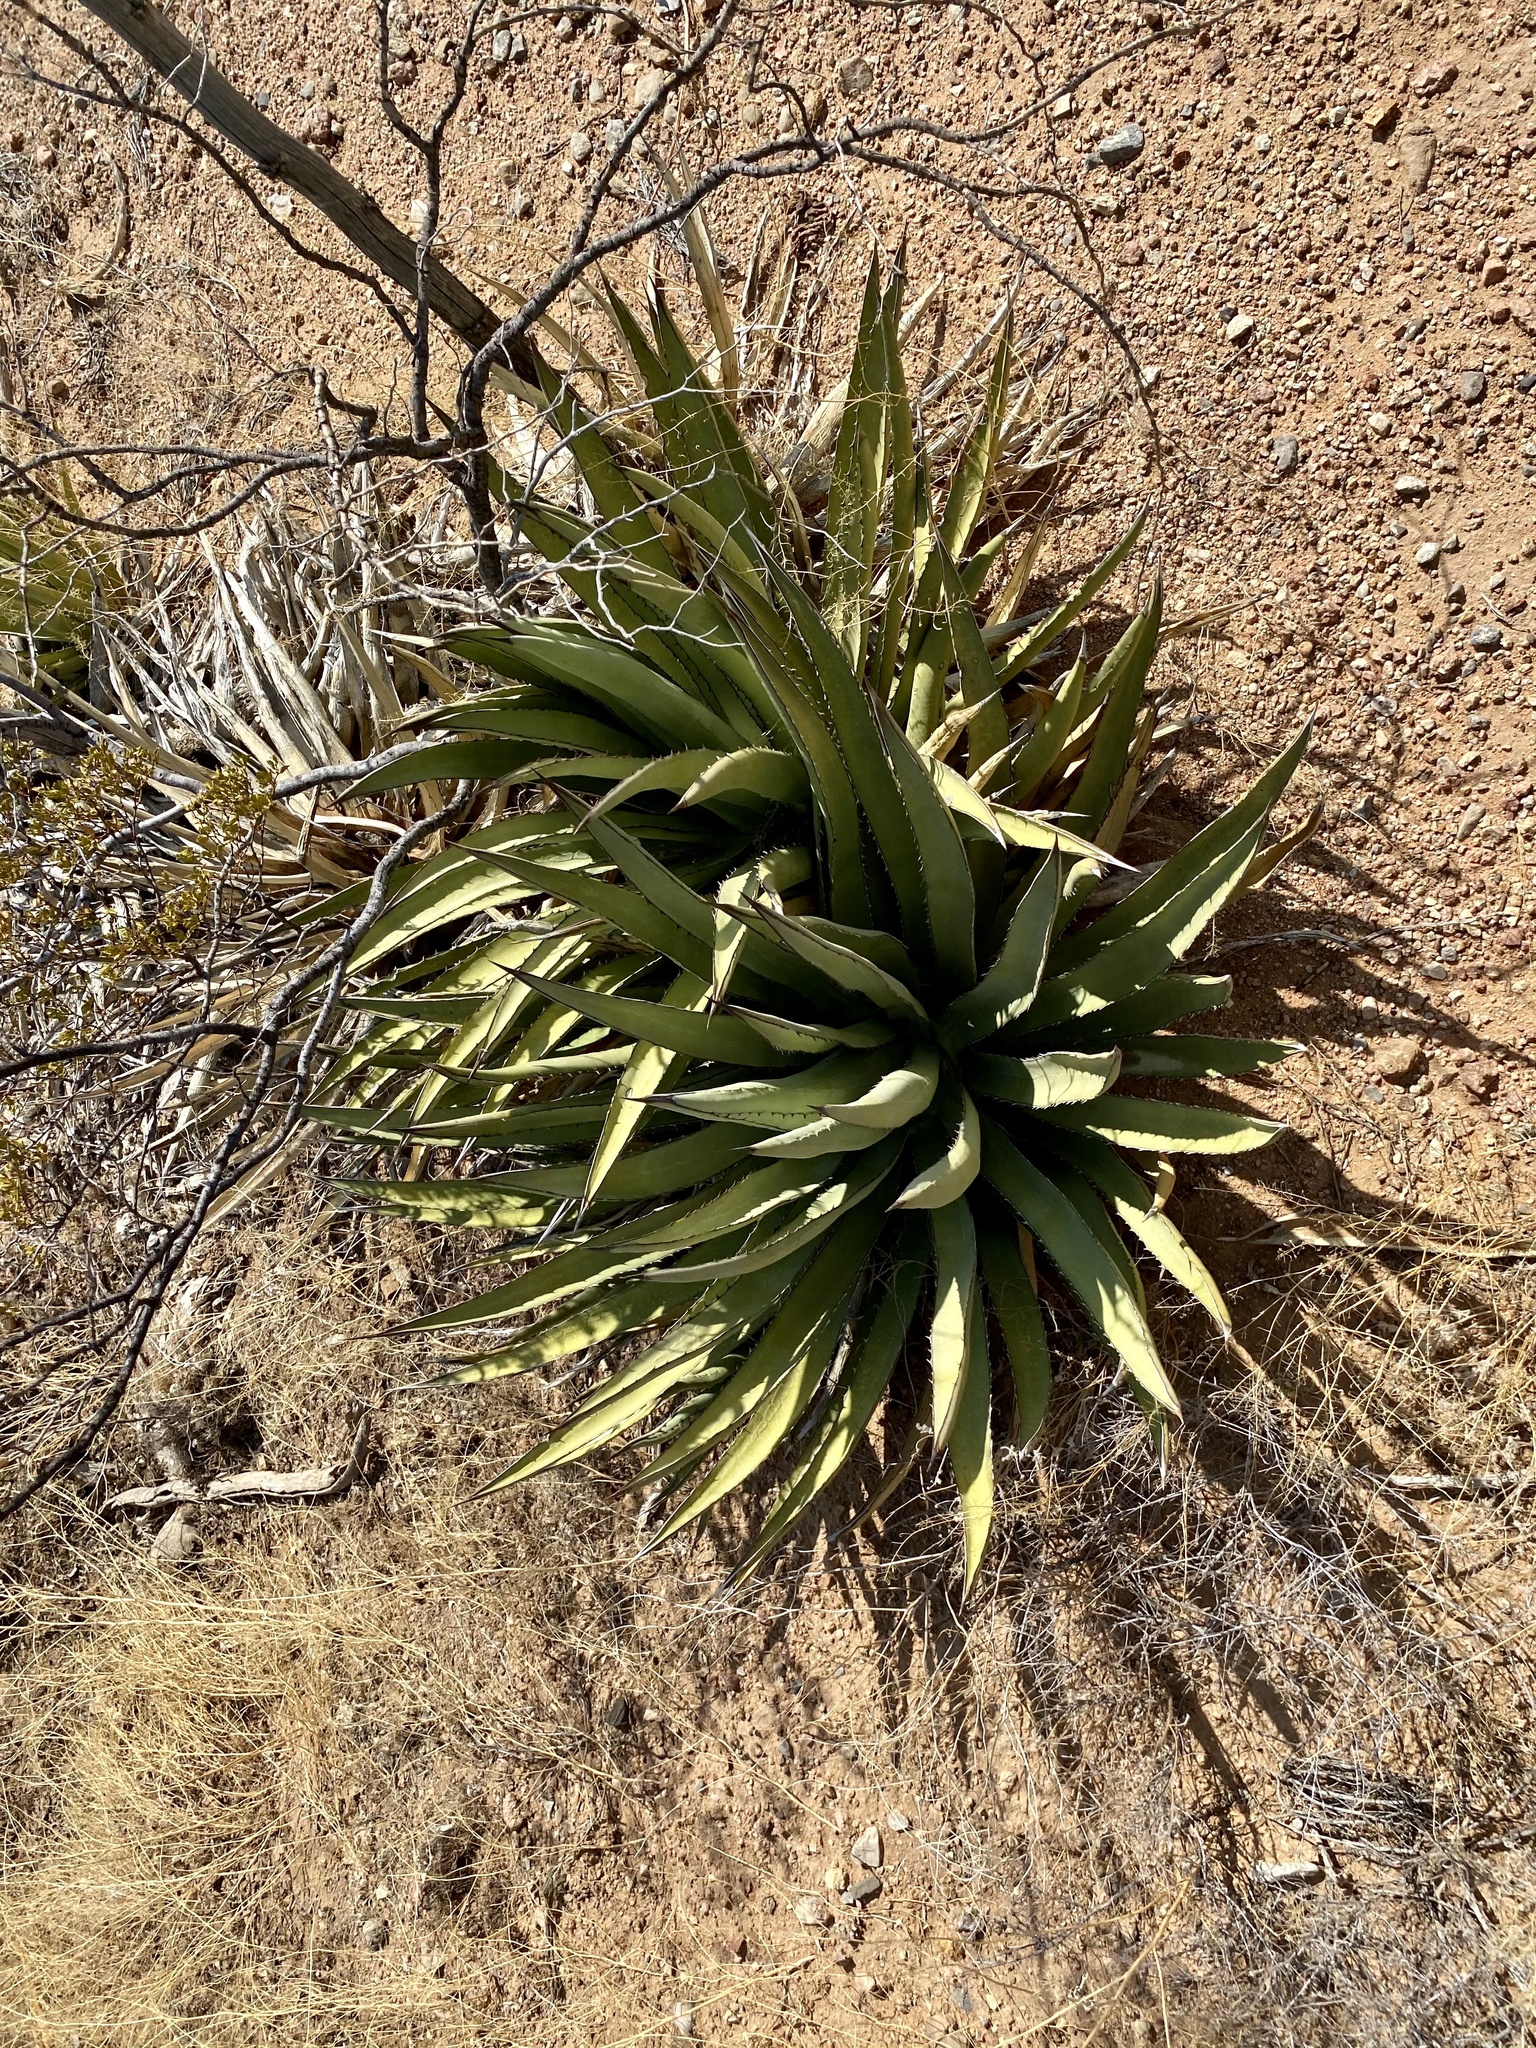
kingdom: Plantae
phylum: Tracheophyta
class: Liliopsida
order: Asparagales
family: Asparagaceae
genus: Agave
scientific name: Agave lechuguilla
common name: Lecheguilla agave
